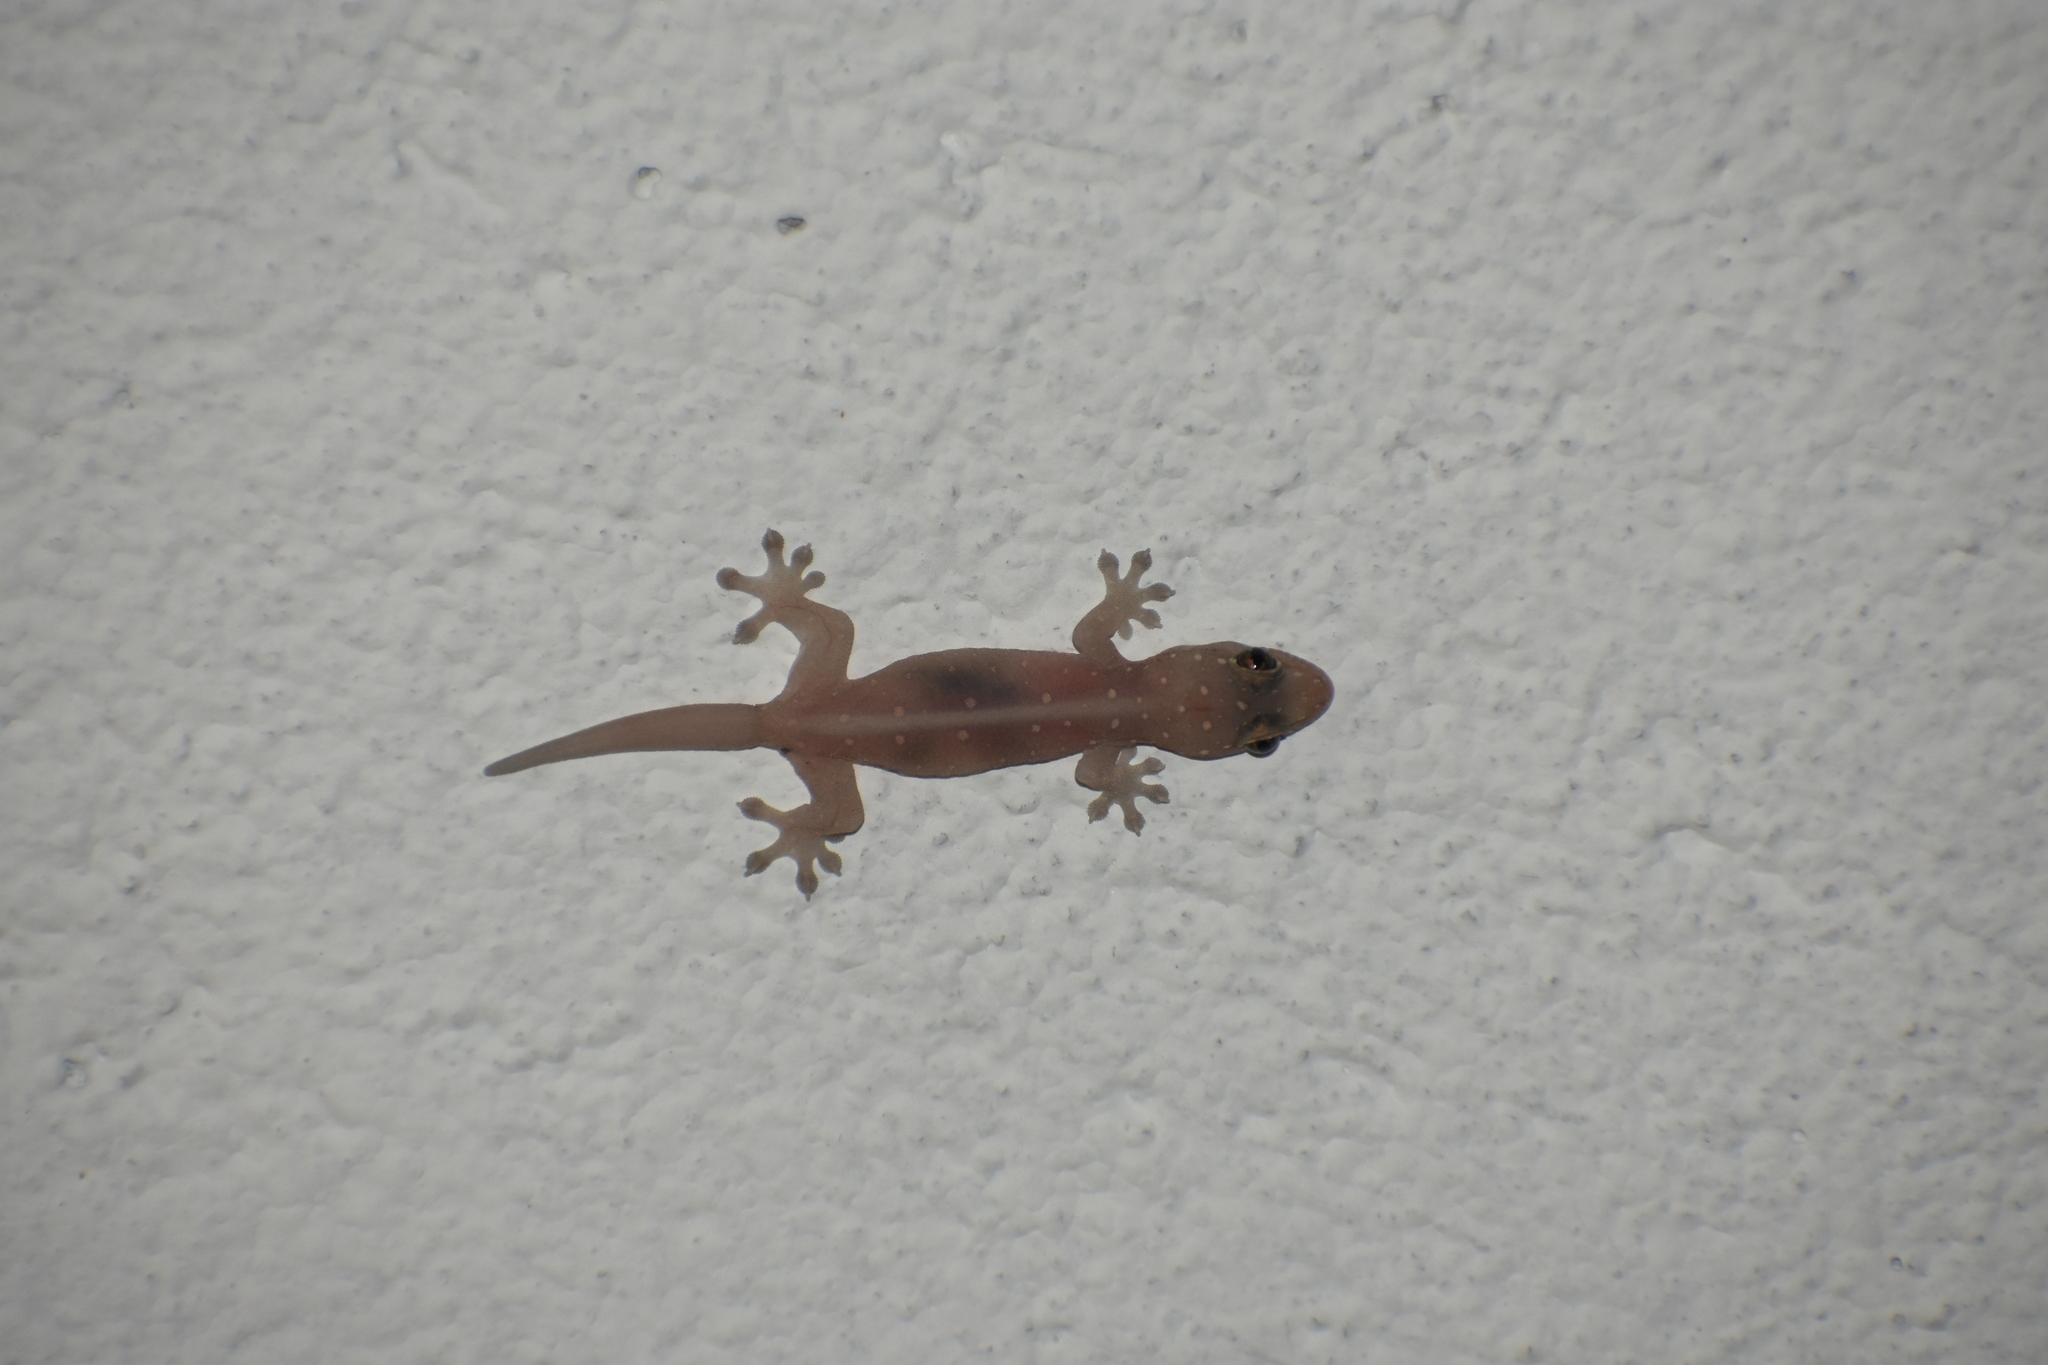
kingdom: Animalia
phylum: Chordata
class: Squamata
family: Gekkonidae
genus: Gehyra
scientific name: Gehyra mutilata
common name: Stump-toed gecko
